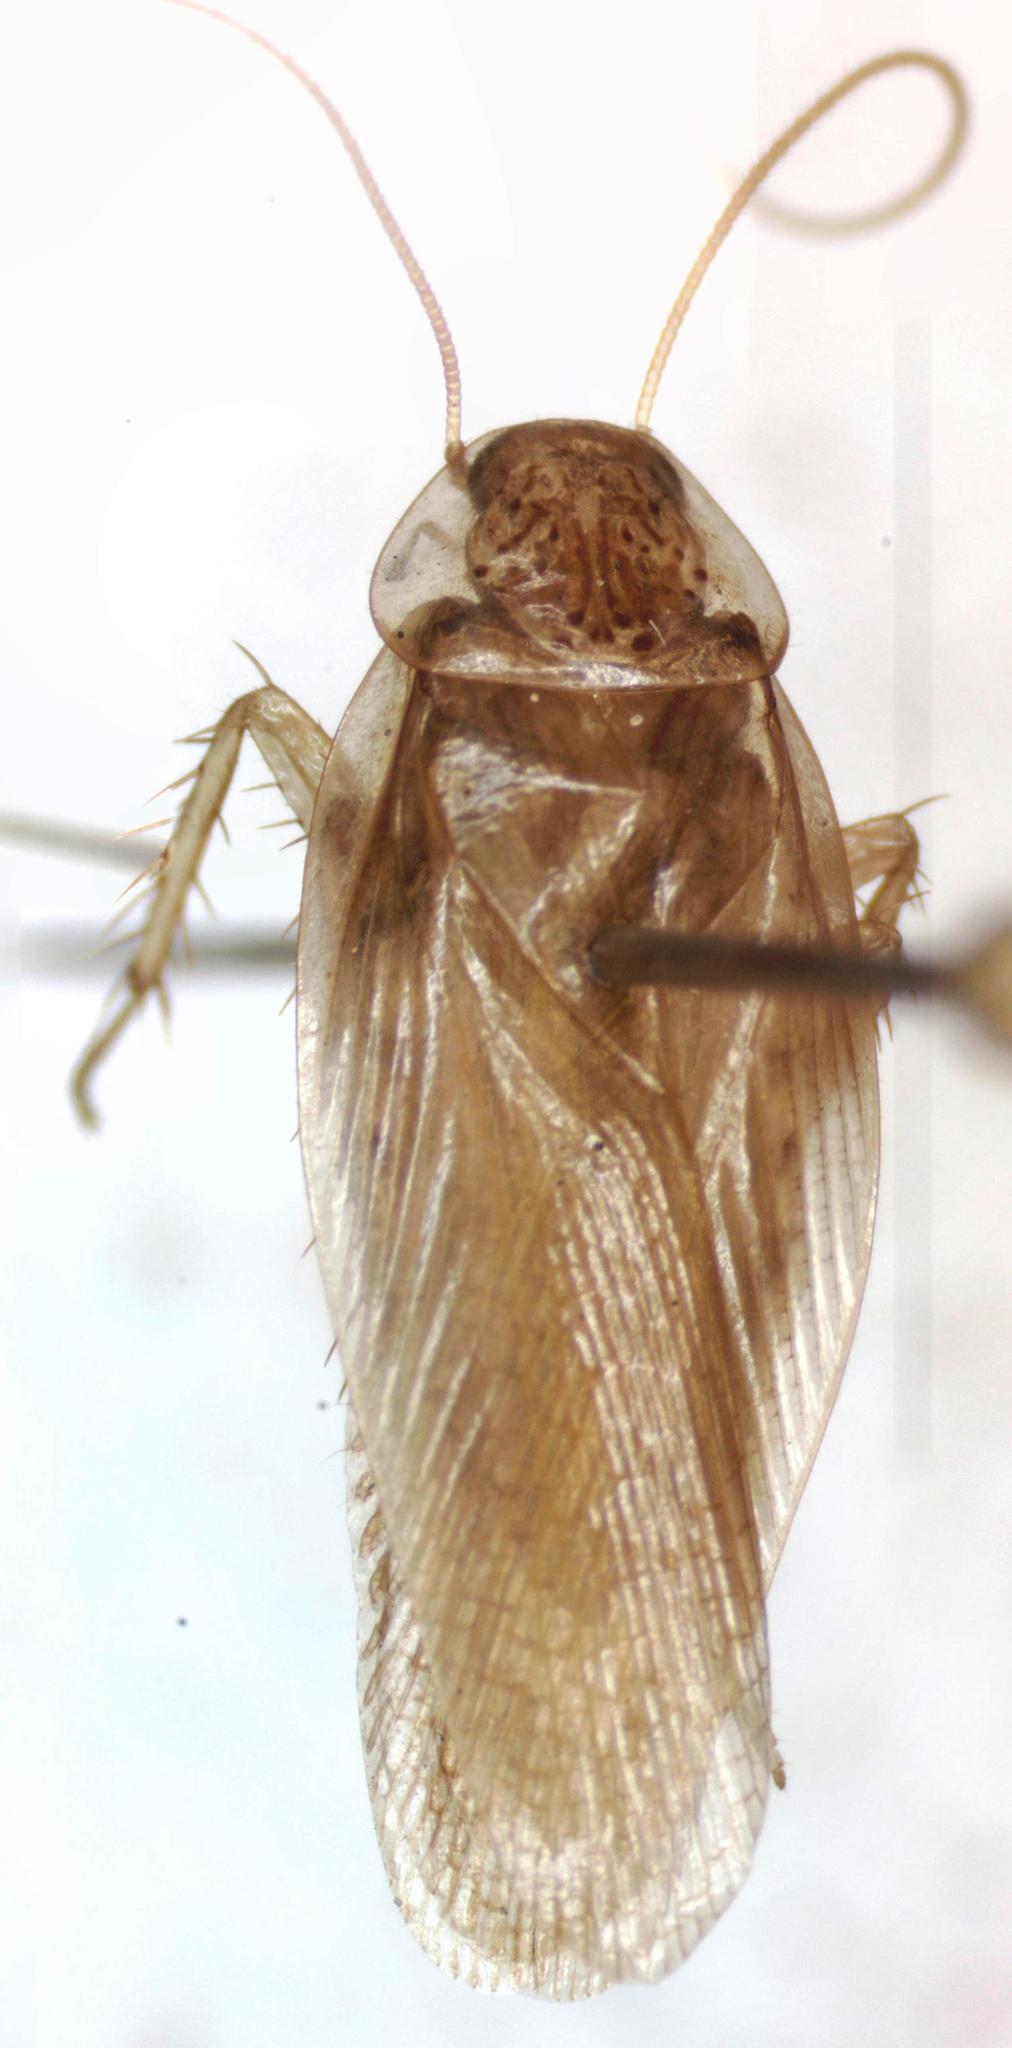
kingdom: Animalia
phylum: Arthropoda
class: Insecta
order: Blattodea
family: Ectobiidae
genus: Imblattella
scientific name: Imblattella chagrensis
